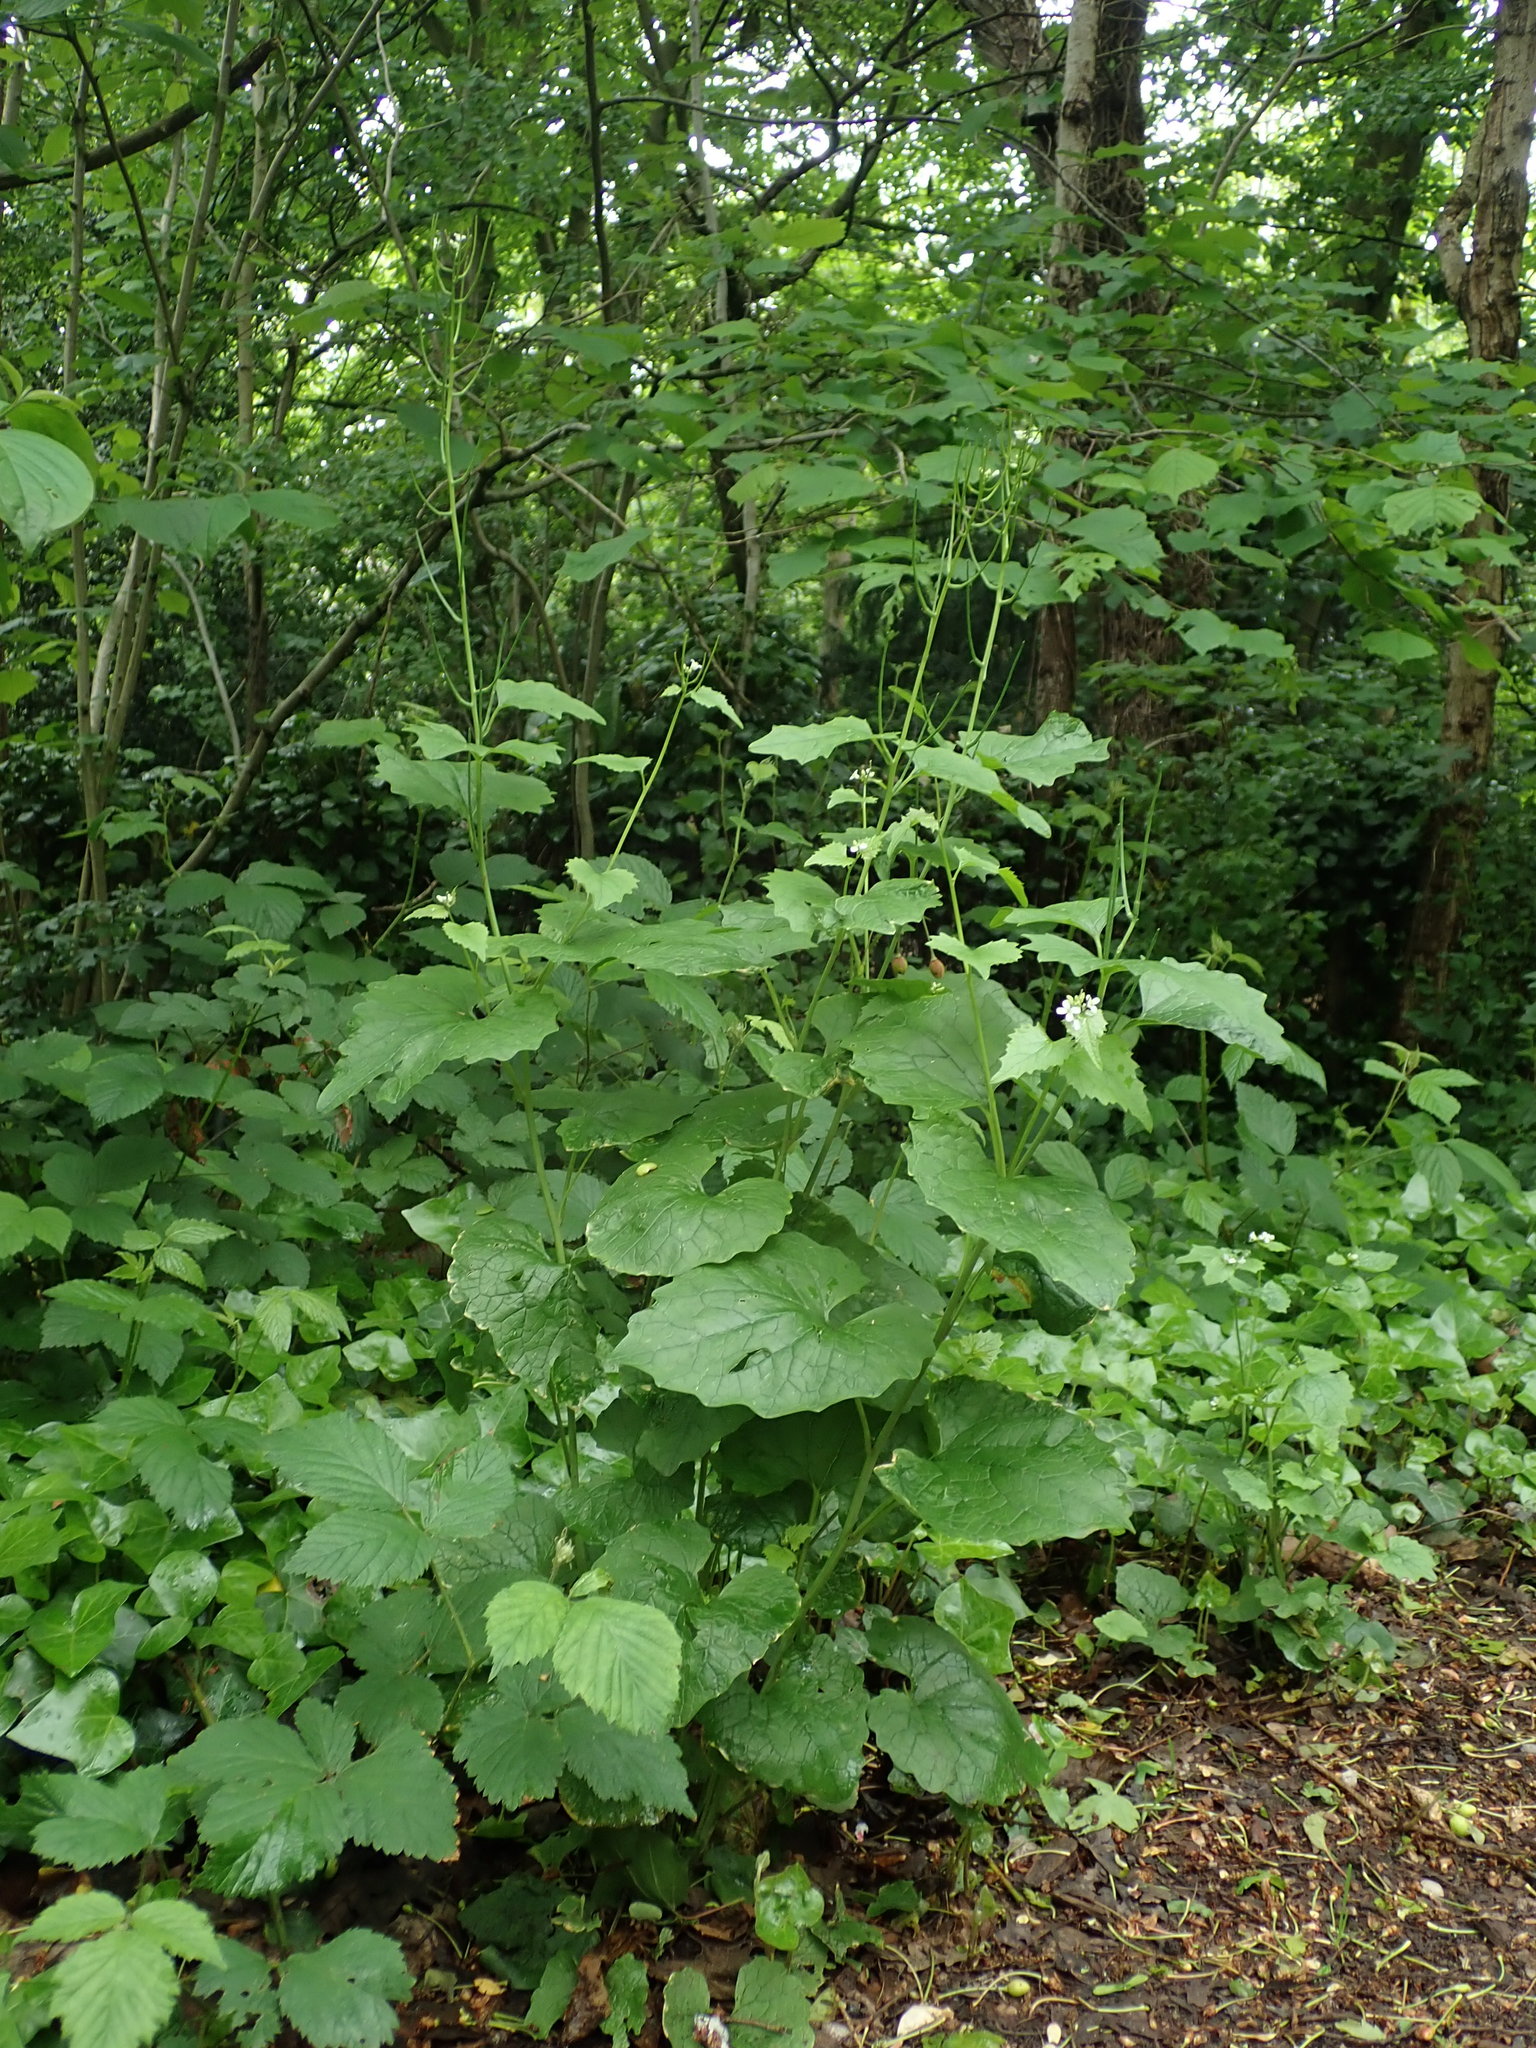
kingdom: Plantae
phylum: Tracheophyta
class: Magnoliopsida
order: Brassicales
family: Brassicaceae
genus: Alliaria
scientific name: Alliaria petiolata
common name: Garlic mustard
